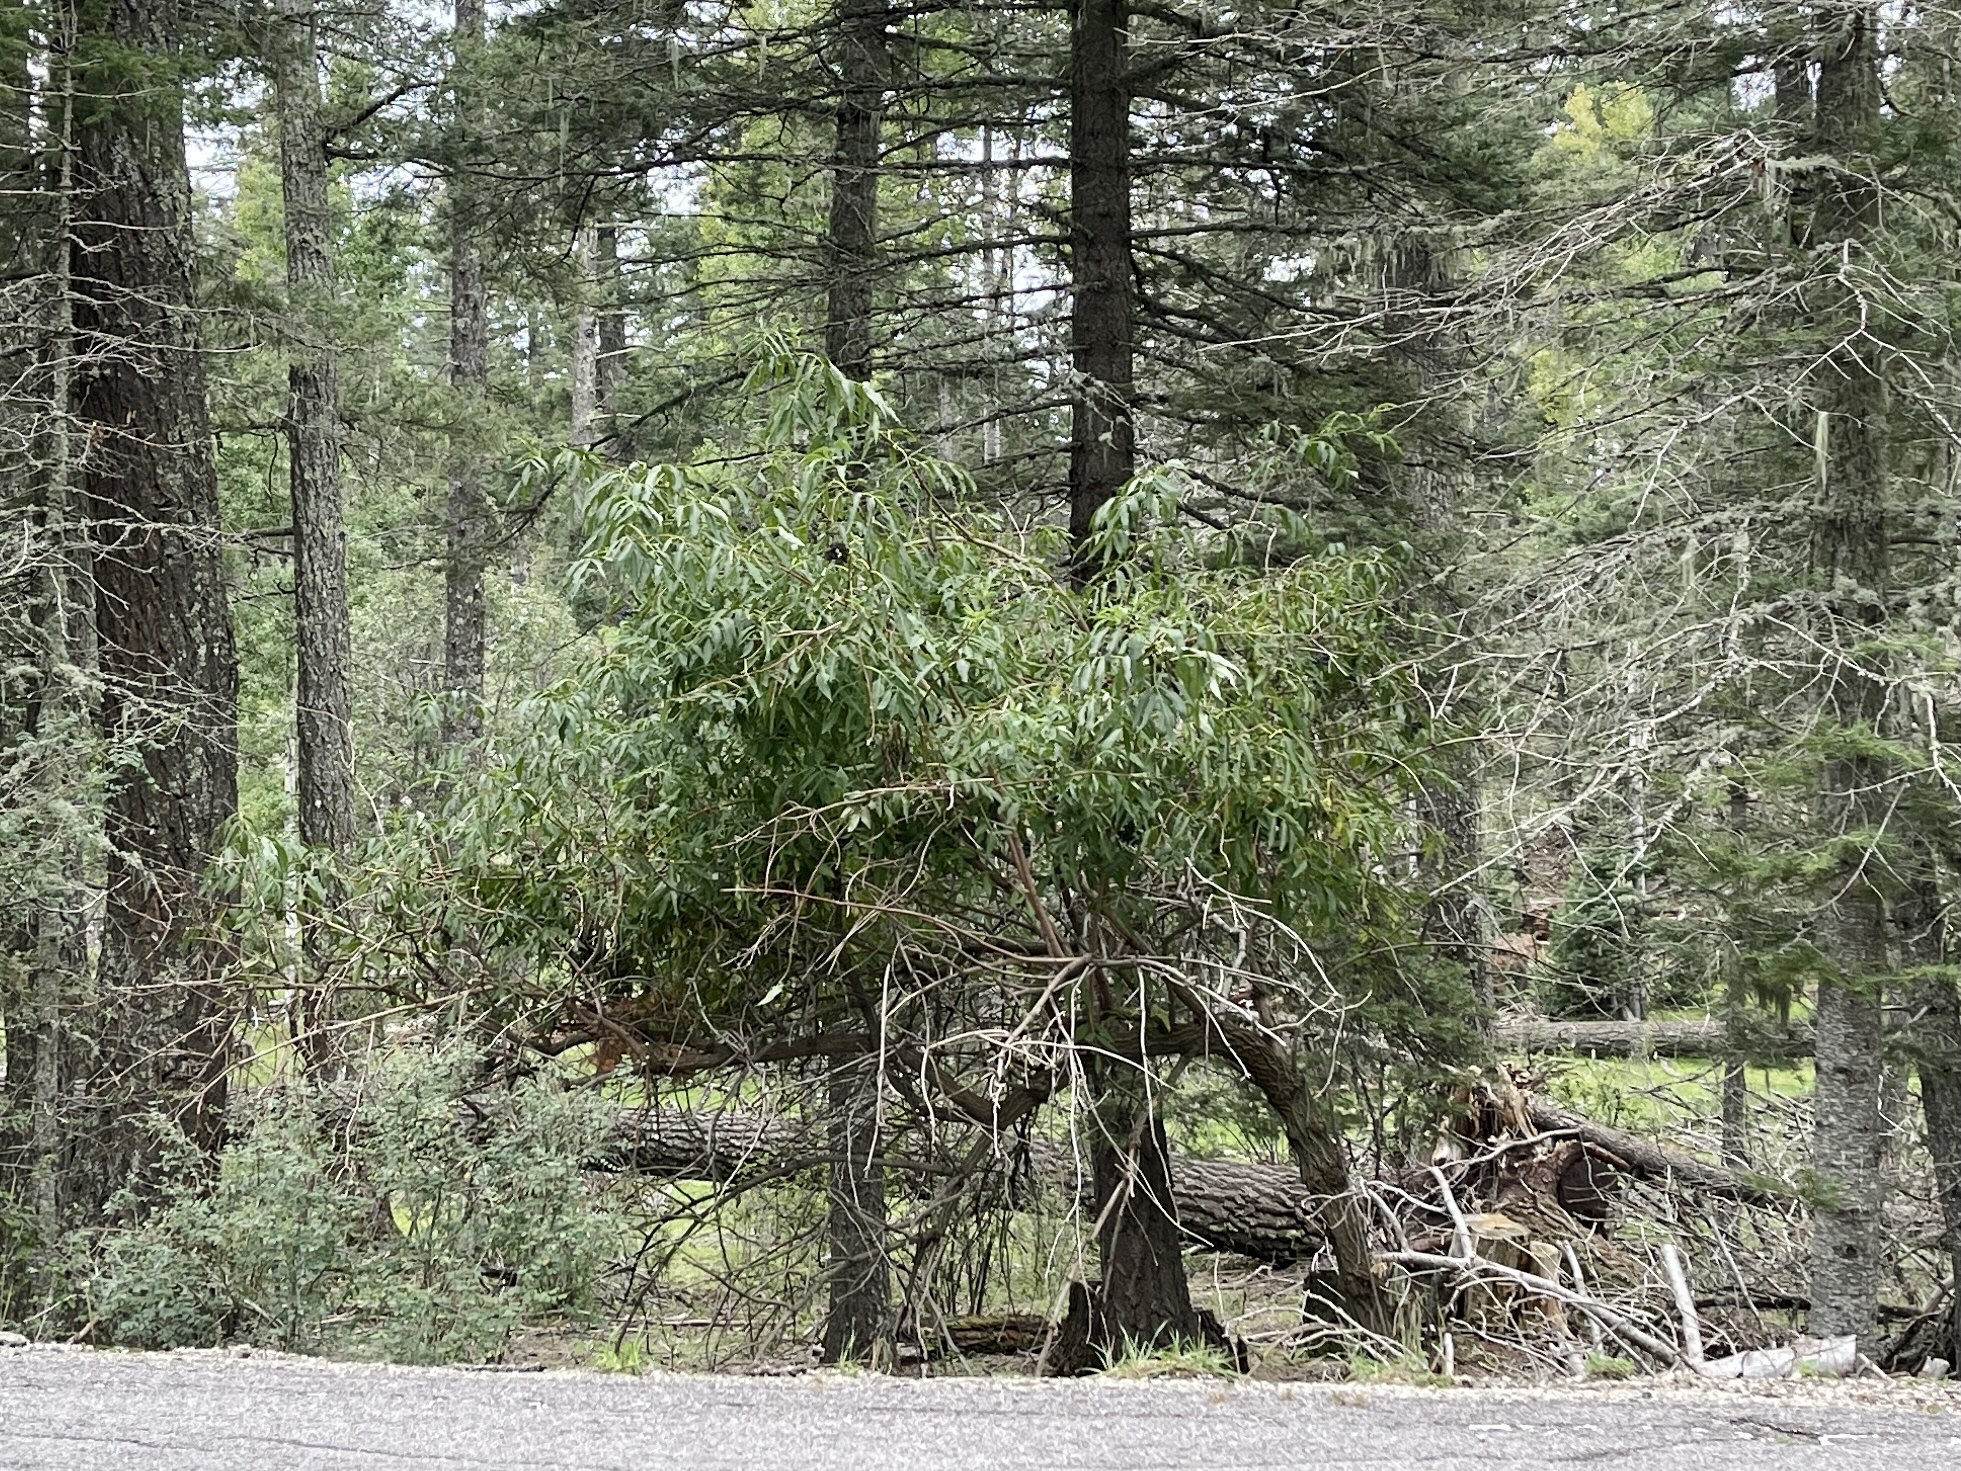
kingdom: Plantae
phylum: Tracheophyta
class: Magnoliopsida
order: Dipsacales
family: Viburnaceae
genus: Sambucus
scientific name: Sambucus cerulea
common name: Blue elder
